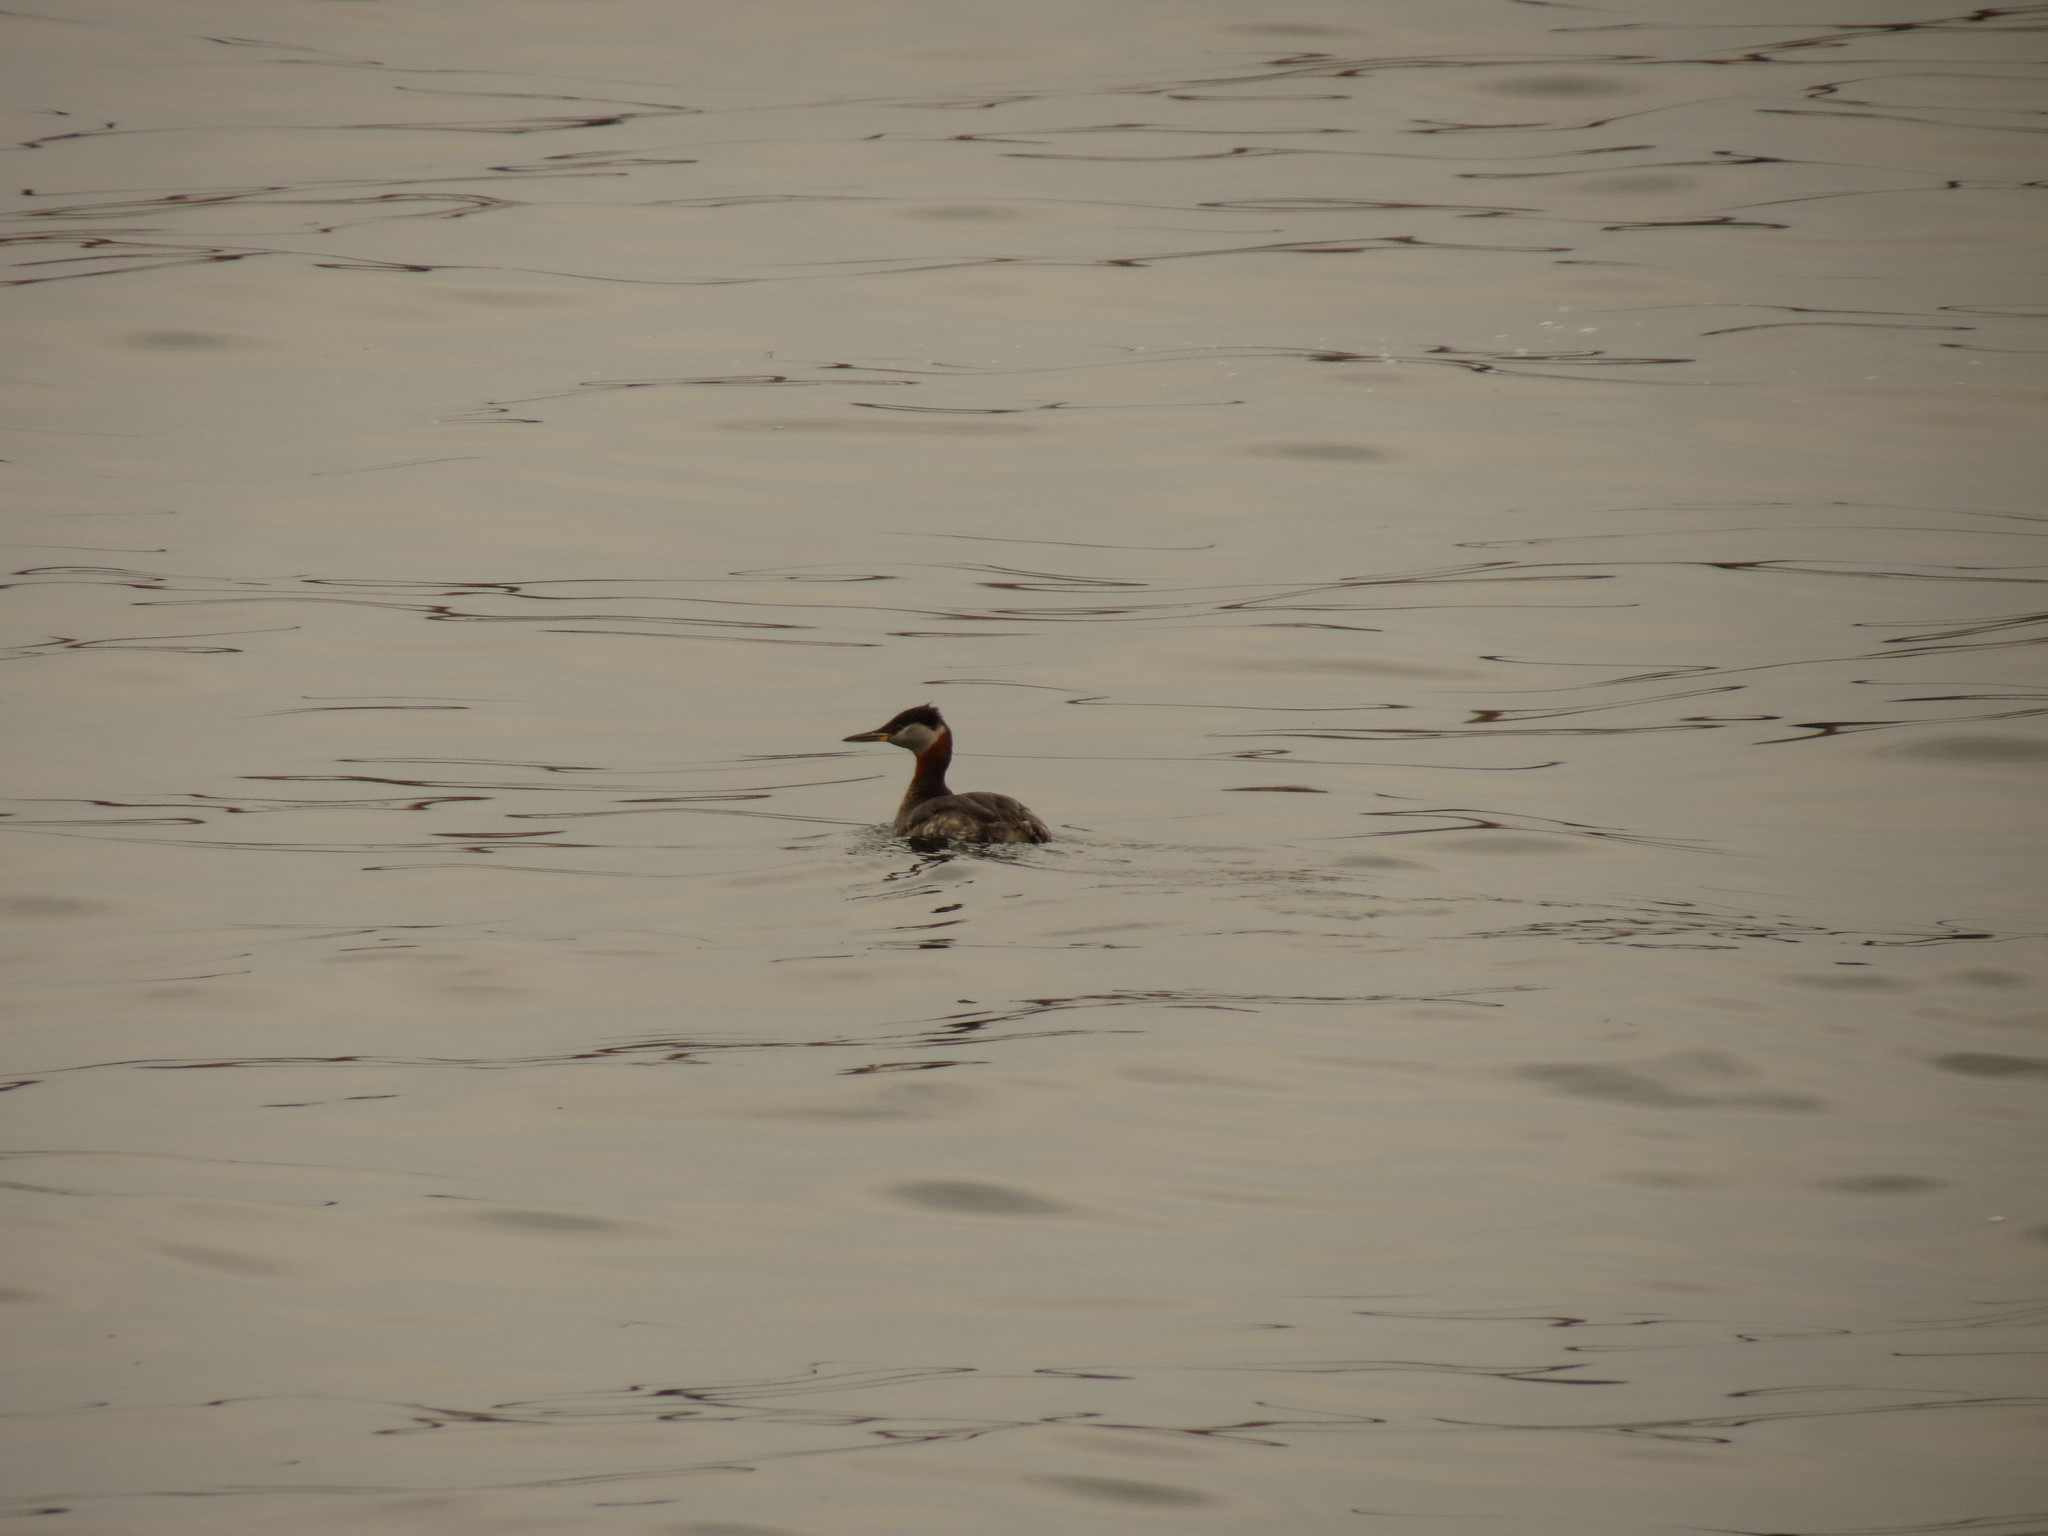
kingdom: Animalia
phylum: Chordata
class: Aves
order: Podicipediformes
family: Podicipedidae
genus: Podiceps
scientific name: Podiceps grisegena
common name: Red-necked grebe
